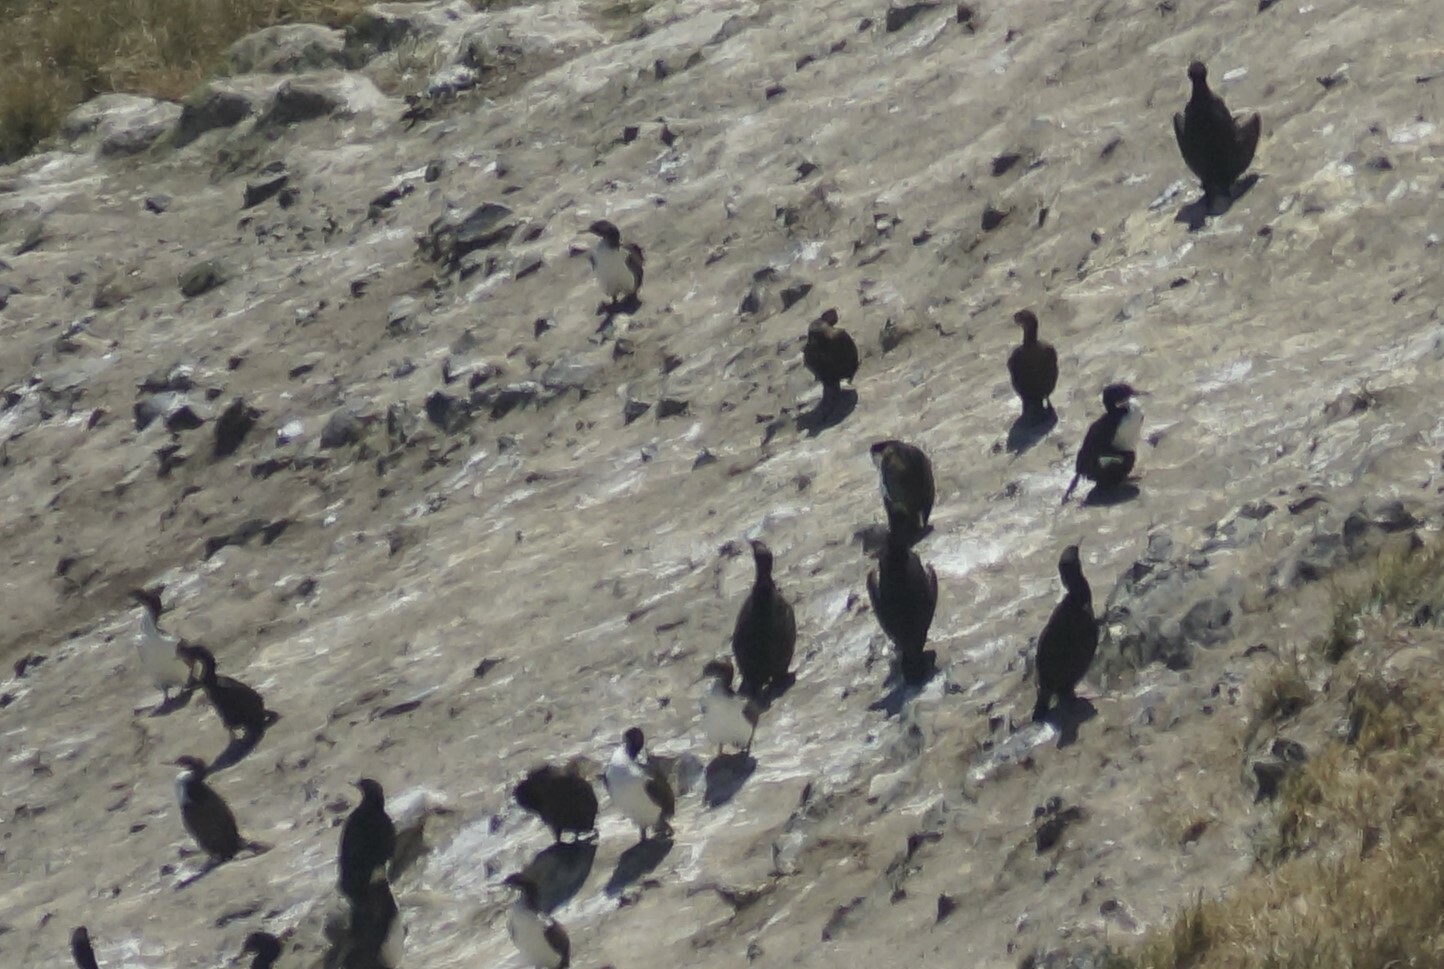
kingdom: Animalia
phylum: Chordata
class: Aves
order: Suliformes
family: Phalacrocoracidae
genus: Leucocarbo
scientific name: Leucocarbo chalconotus
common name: Stewart shag
